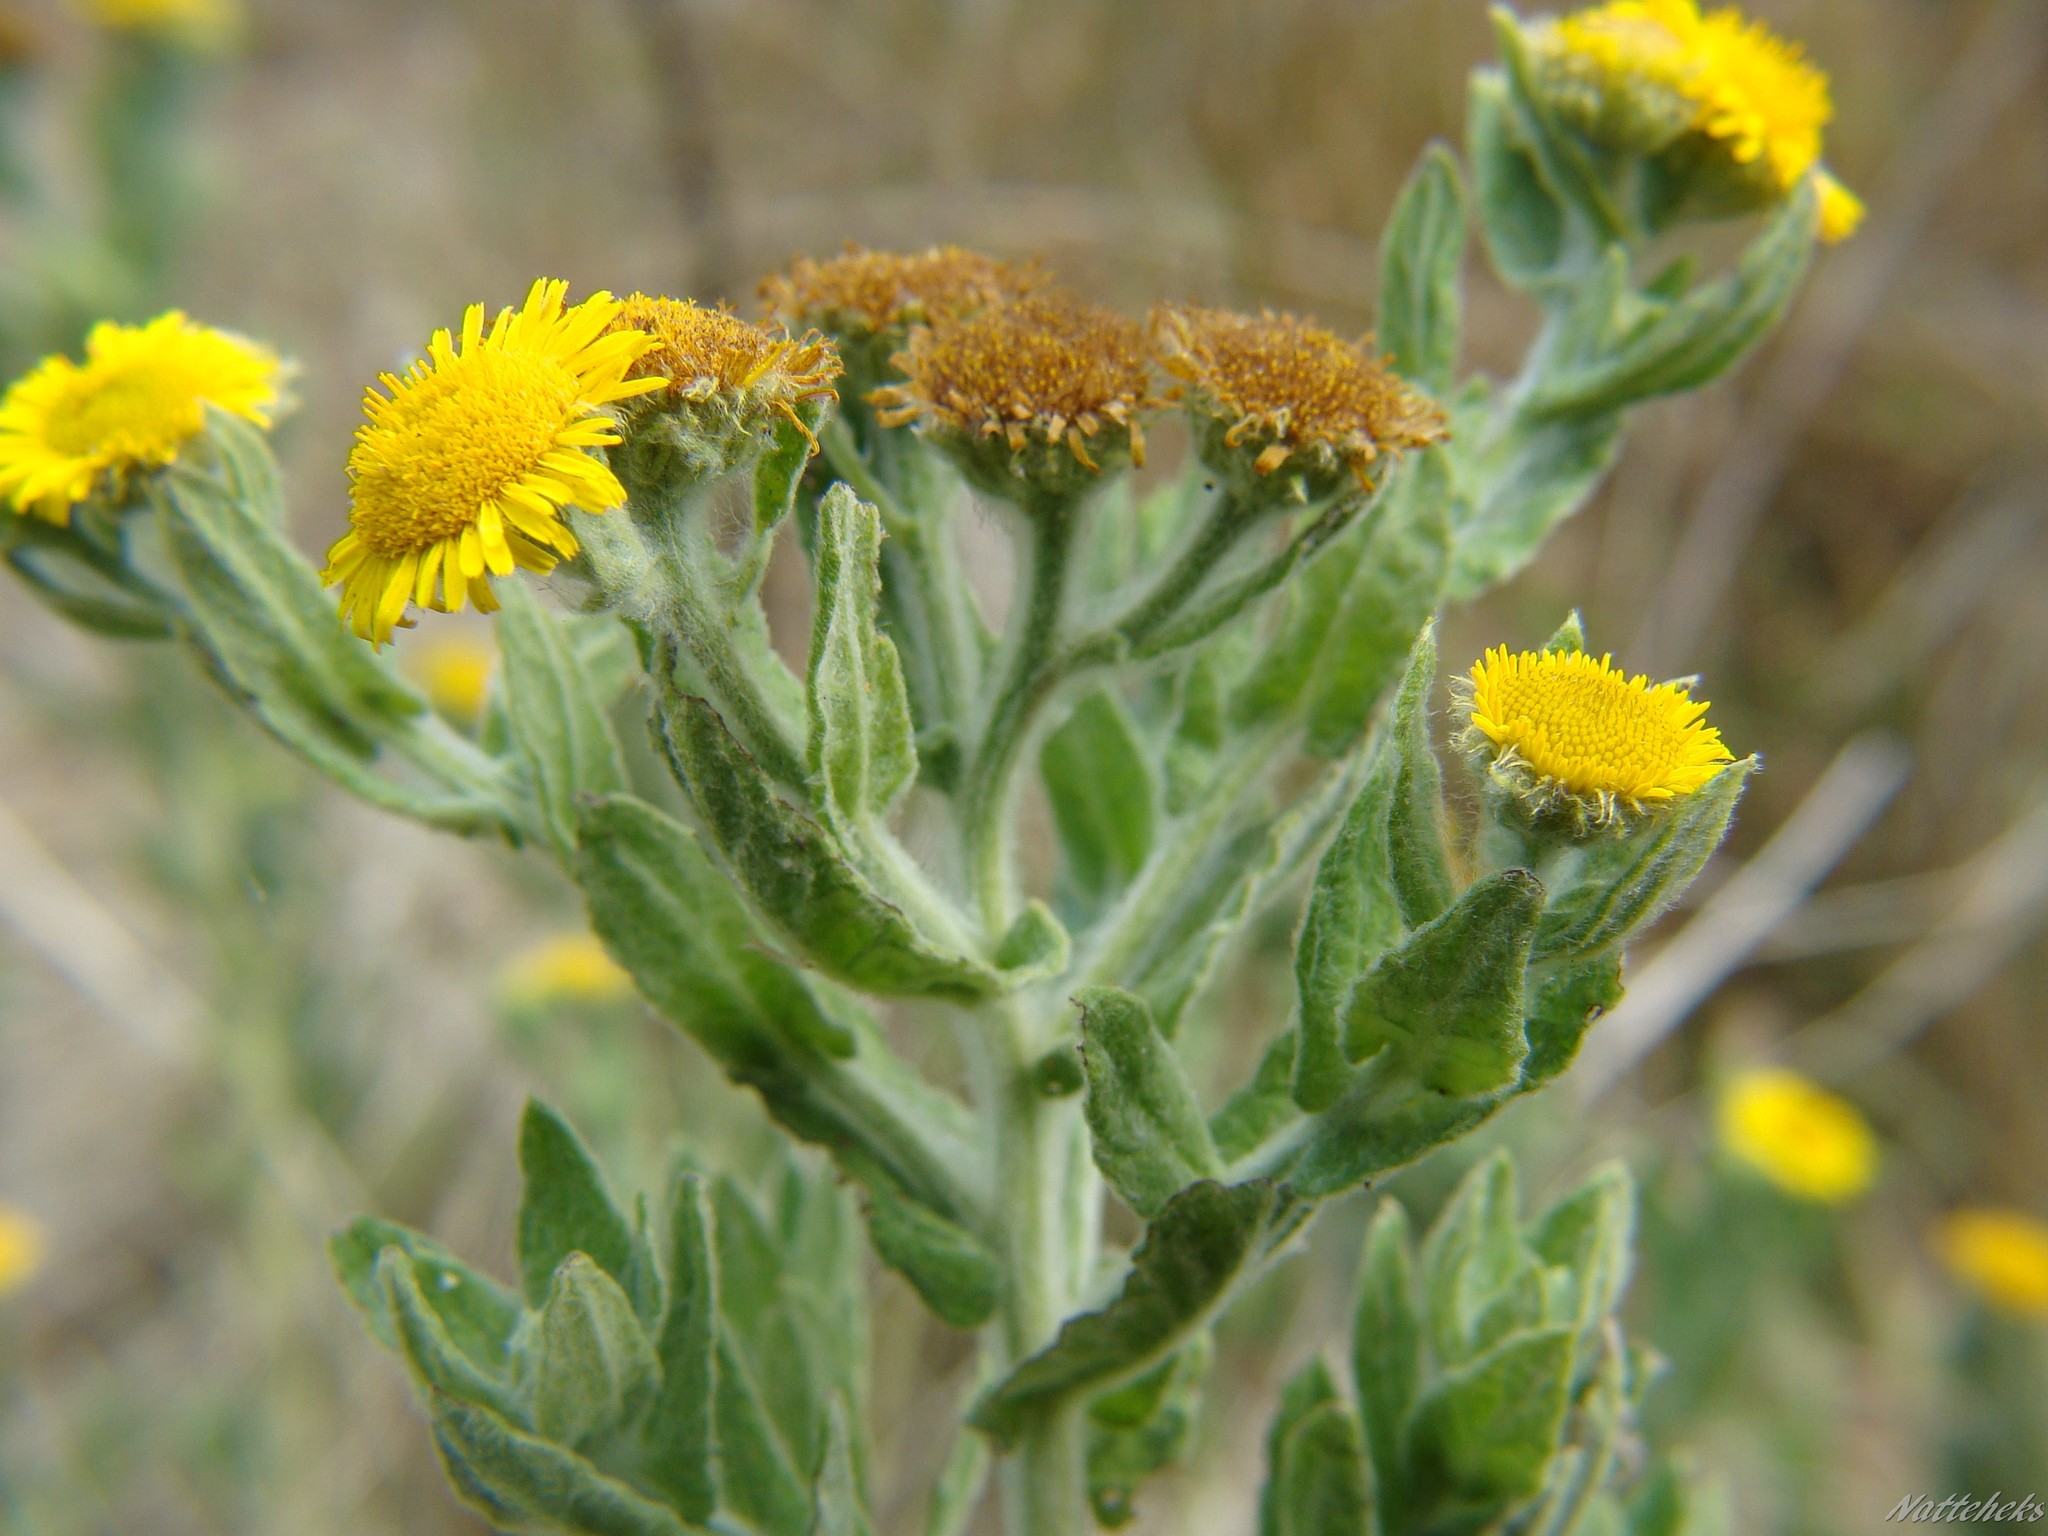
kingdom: Plantae
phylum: Tracheophyta
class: Magnoliopsida
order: Asterales
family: Asteraceae
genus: Pulicaria
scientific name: Pulicaria dysenterica
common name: Common fleabane
